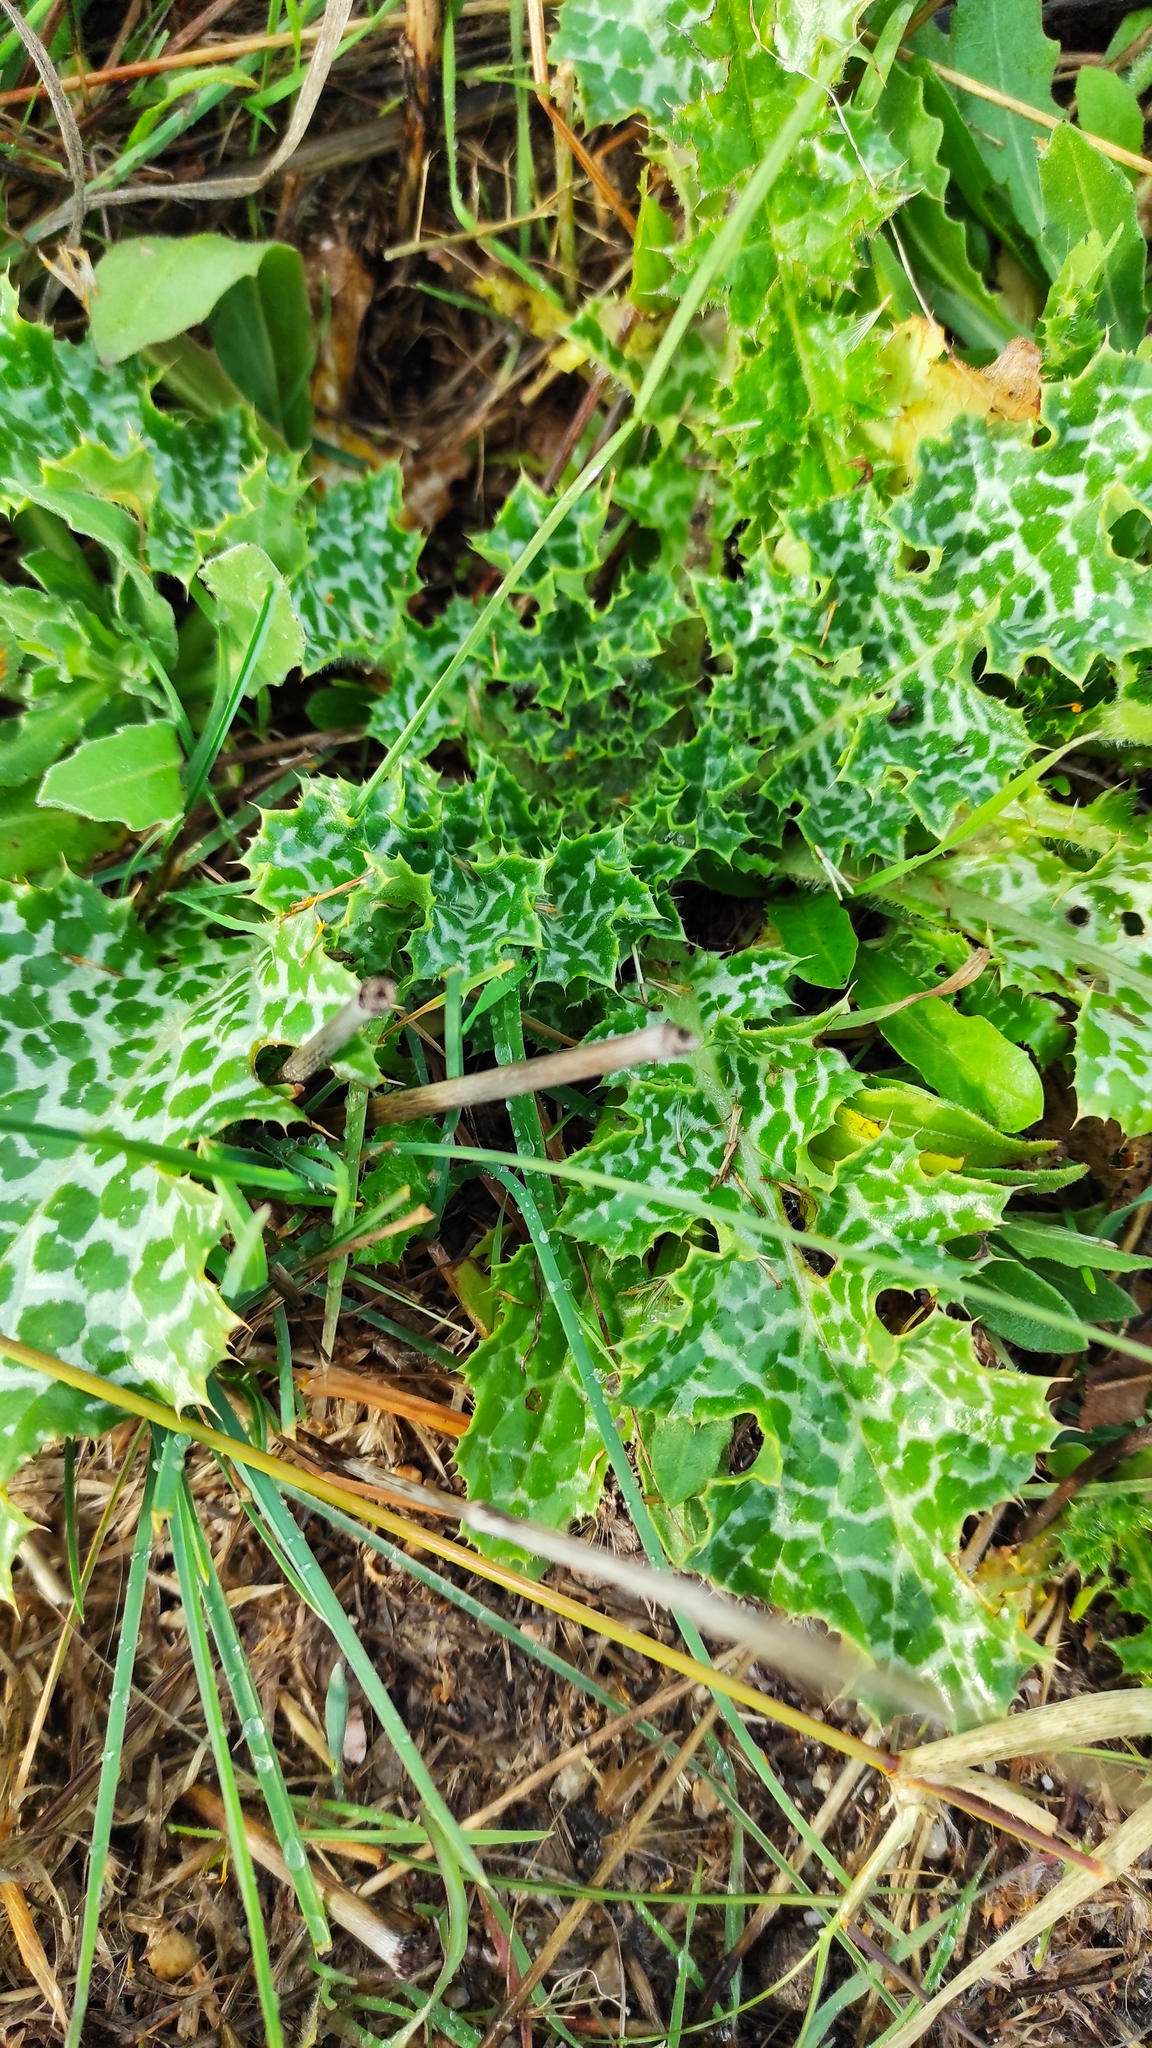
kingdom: Plantae
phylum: Tracheophyta
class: Magnoliopsida
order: Asterales
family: Asteraceae
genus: Silybum
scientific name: Silybum marianum
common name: Milk thistle
